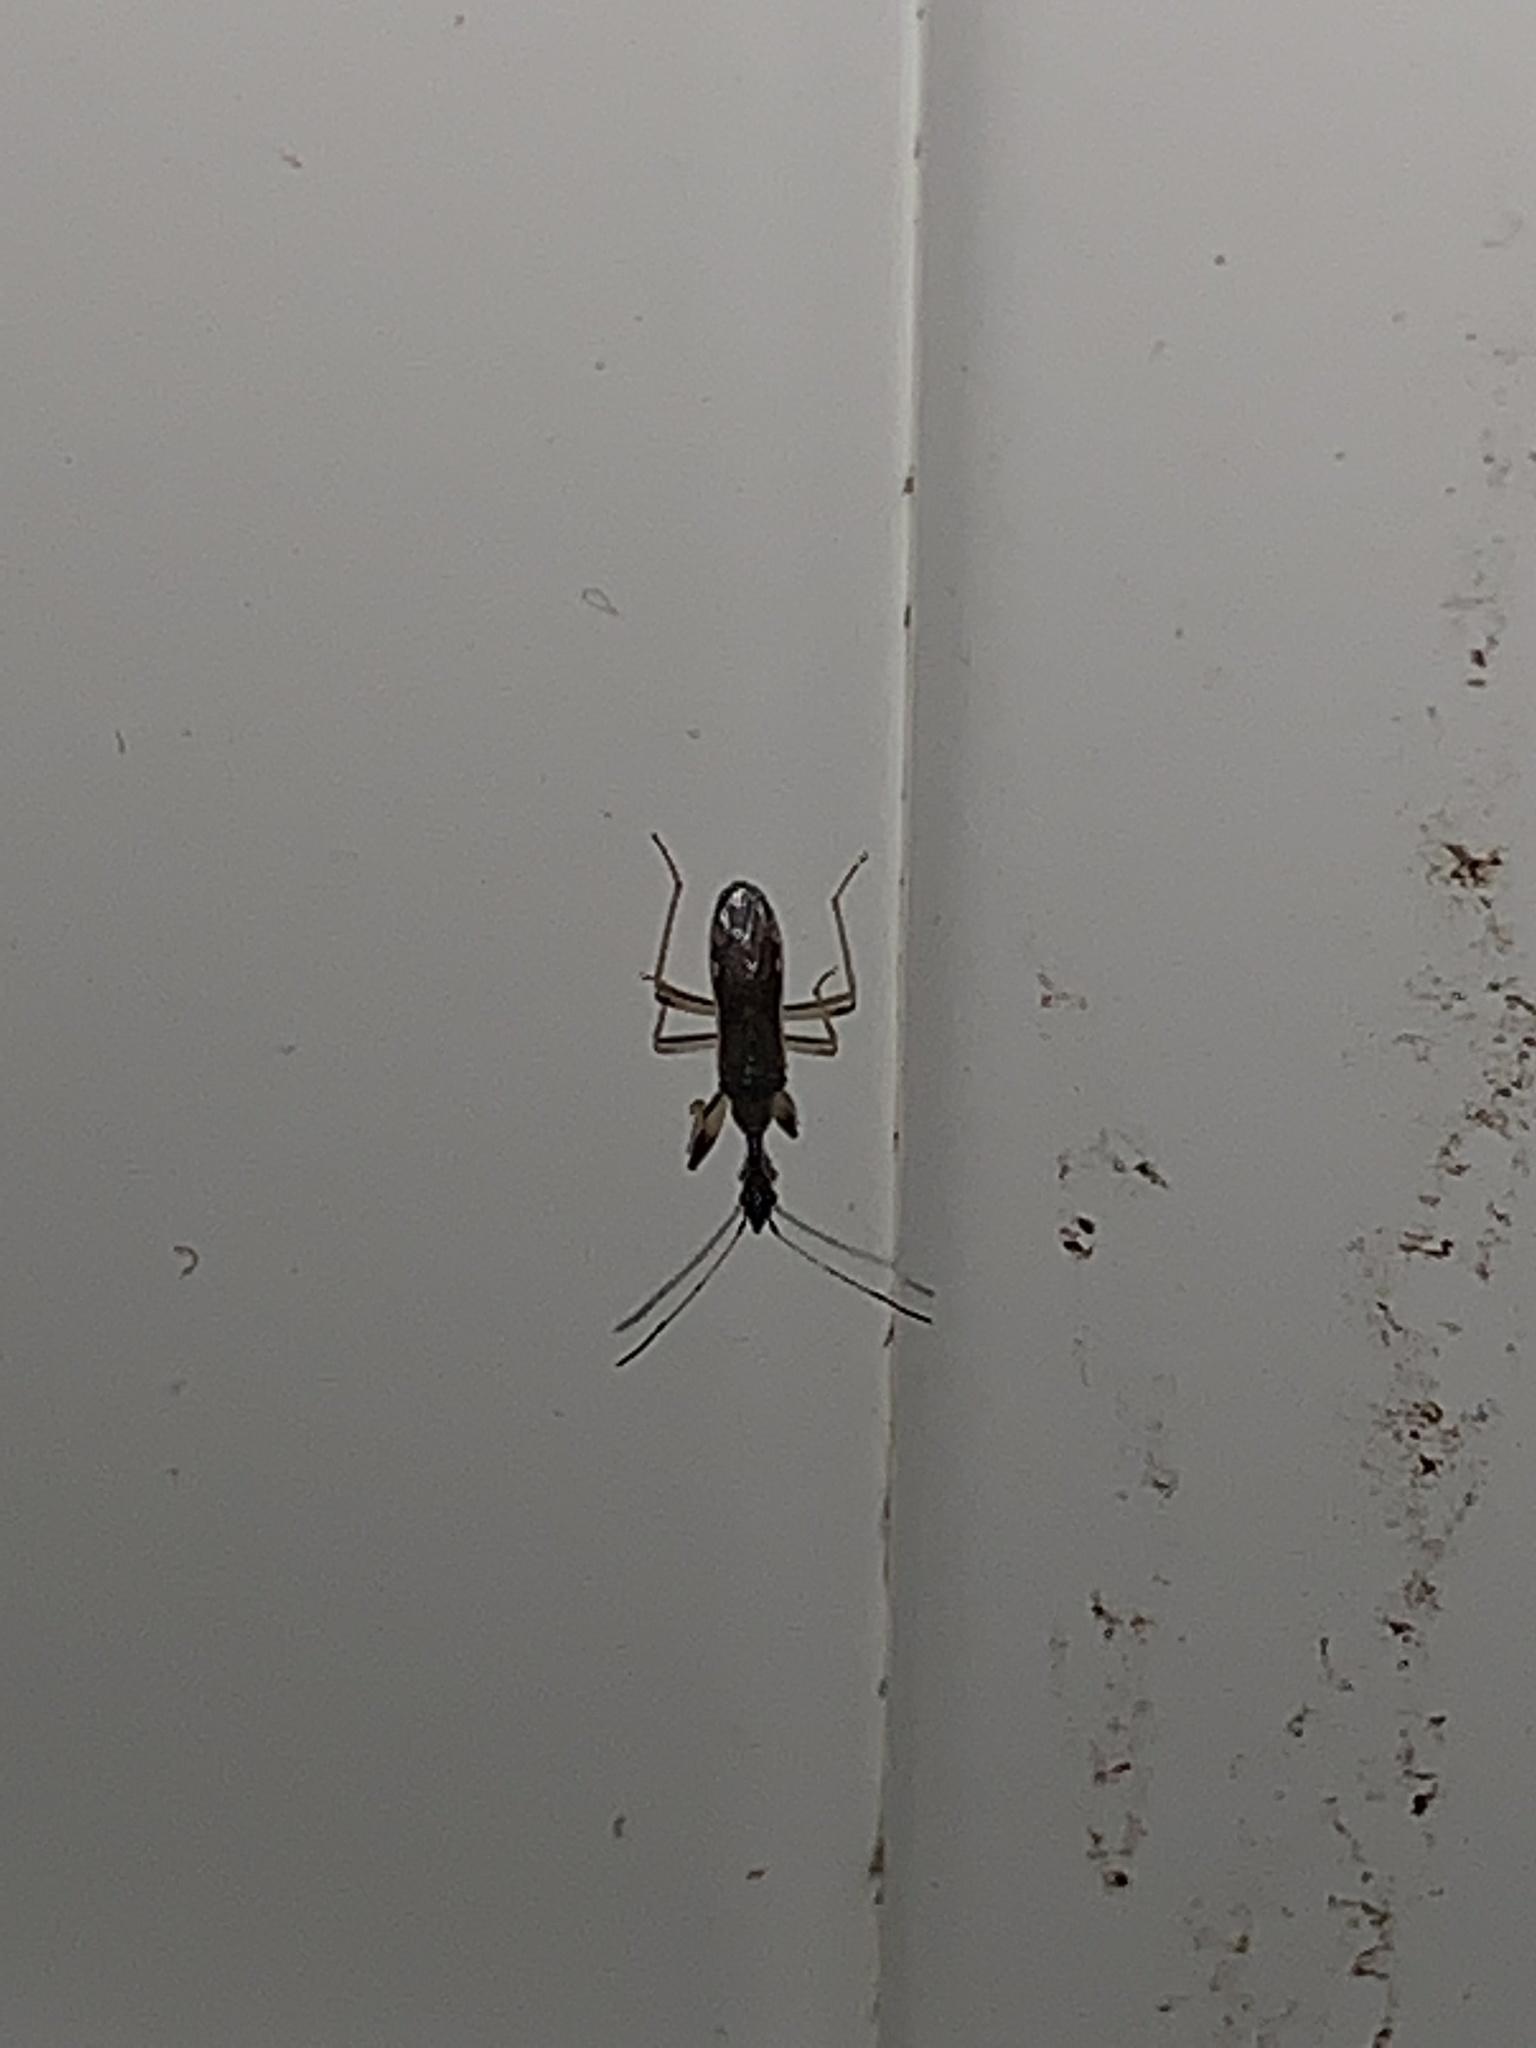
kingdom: Animalia
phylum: Arthropoda
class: Insecta
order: Hemiptera
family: Rhyparochromidae
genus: Myodocha
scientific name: Myodocha serripes
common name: Long-necked seed bug
